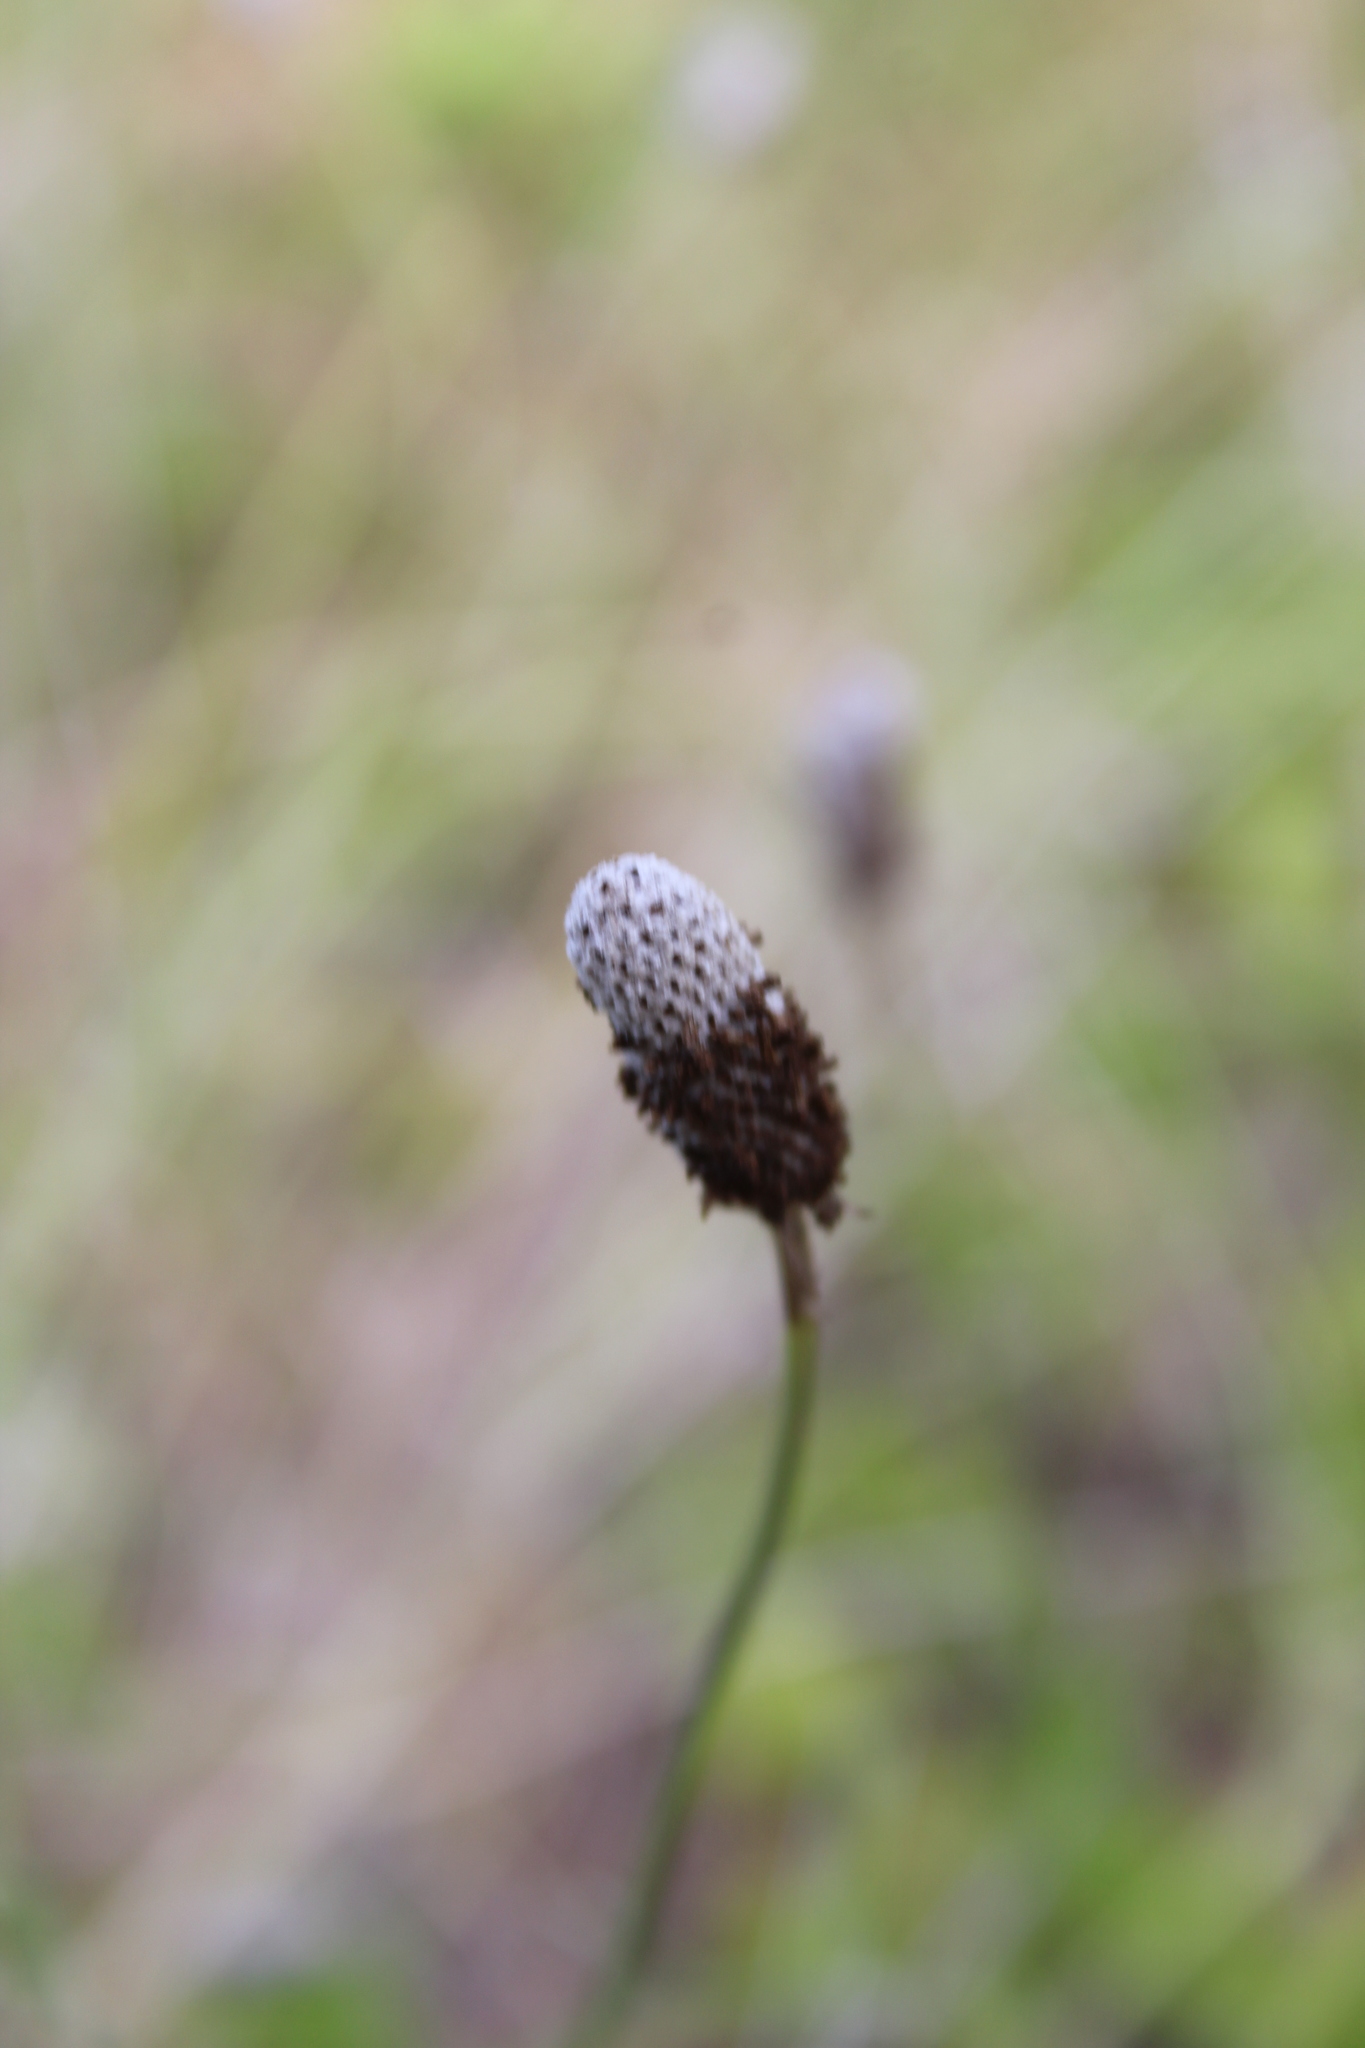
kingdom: Plantae
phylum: Tracheophyta
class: Magnoliopsida
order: Asterales
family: Asteraceae
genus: Ratibida
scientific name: Ratibida columnifera
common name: Prairie coneflower
